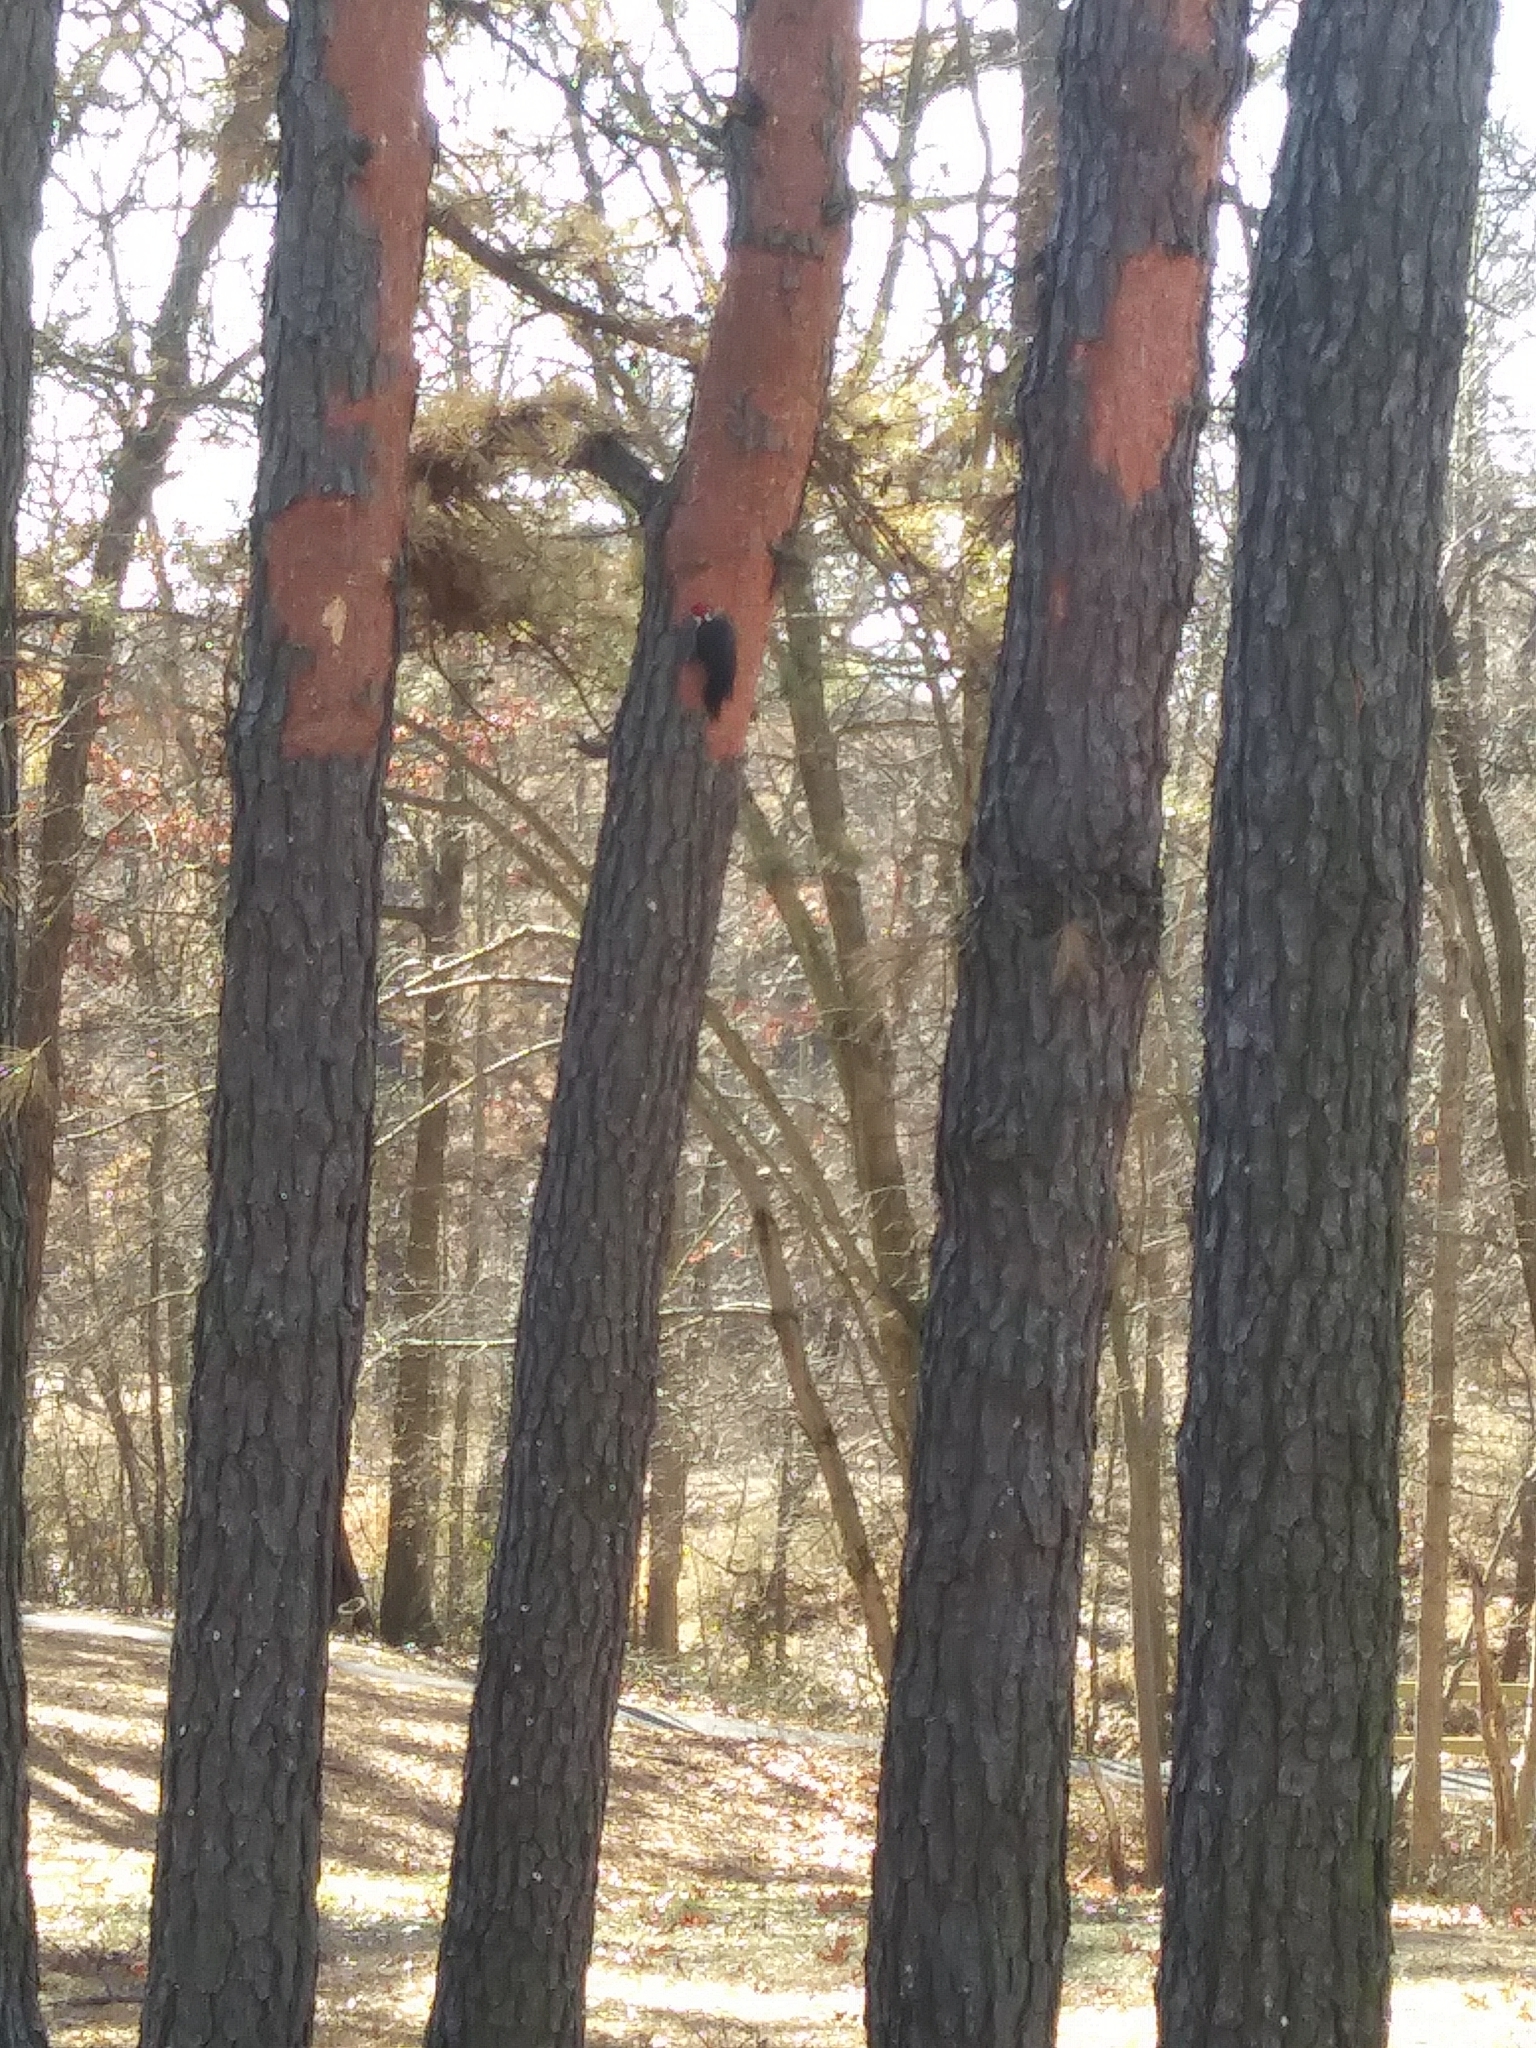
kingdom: Animalia
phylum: Chordata
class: Aves
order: Piciformes
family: Picidae
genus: Dryocopus
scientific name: Dryocopus pileatus
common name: Pileated woodpecker
